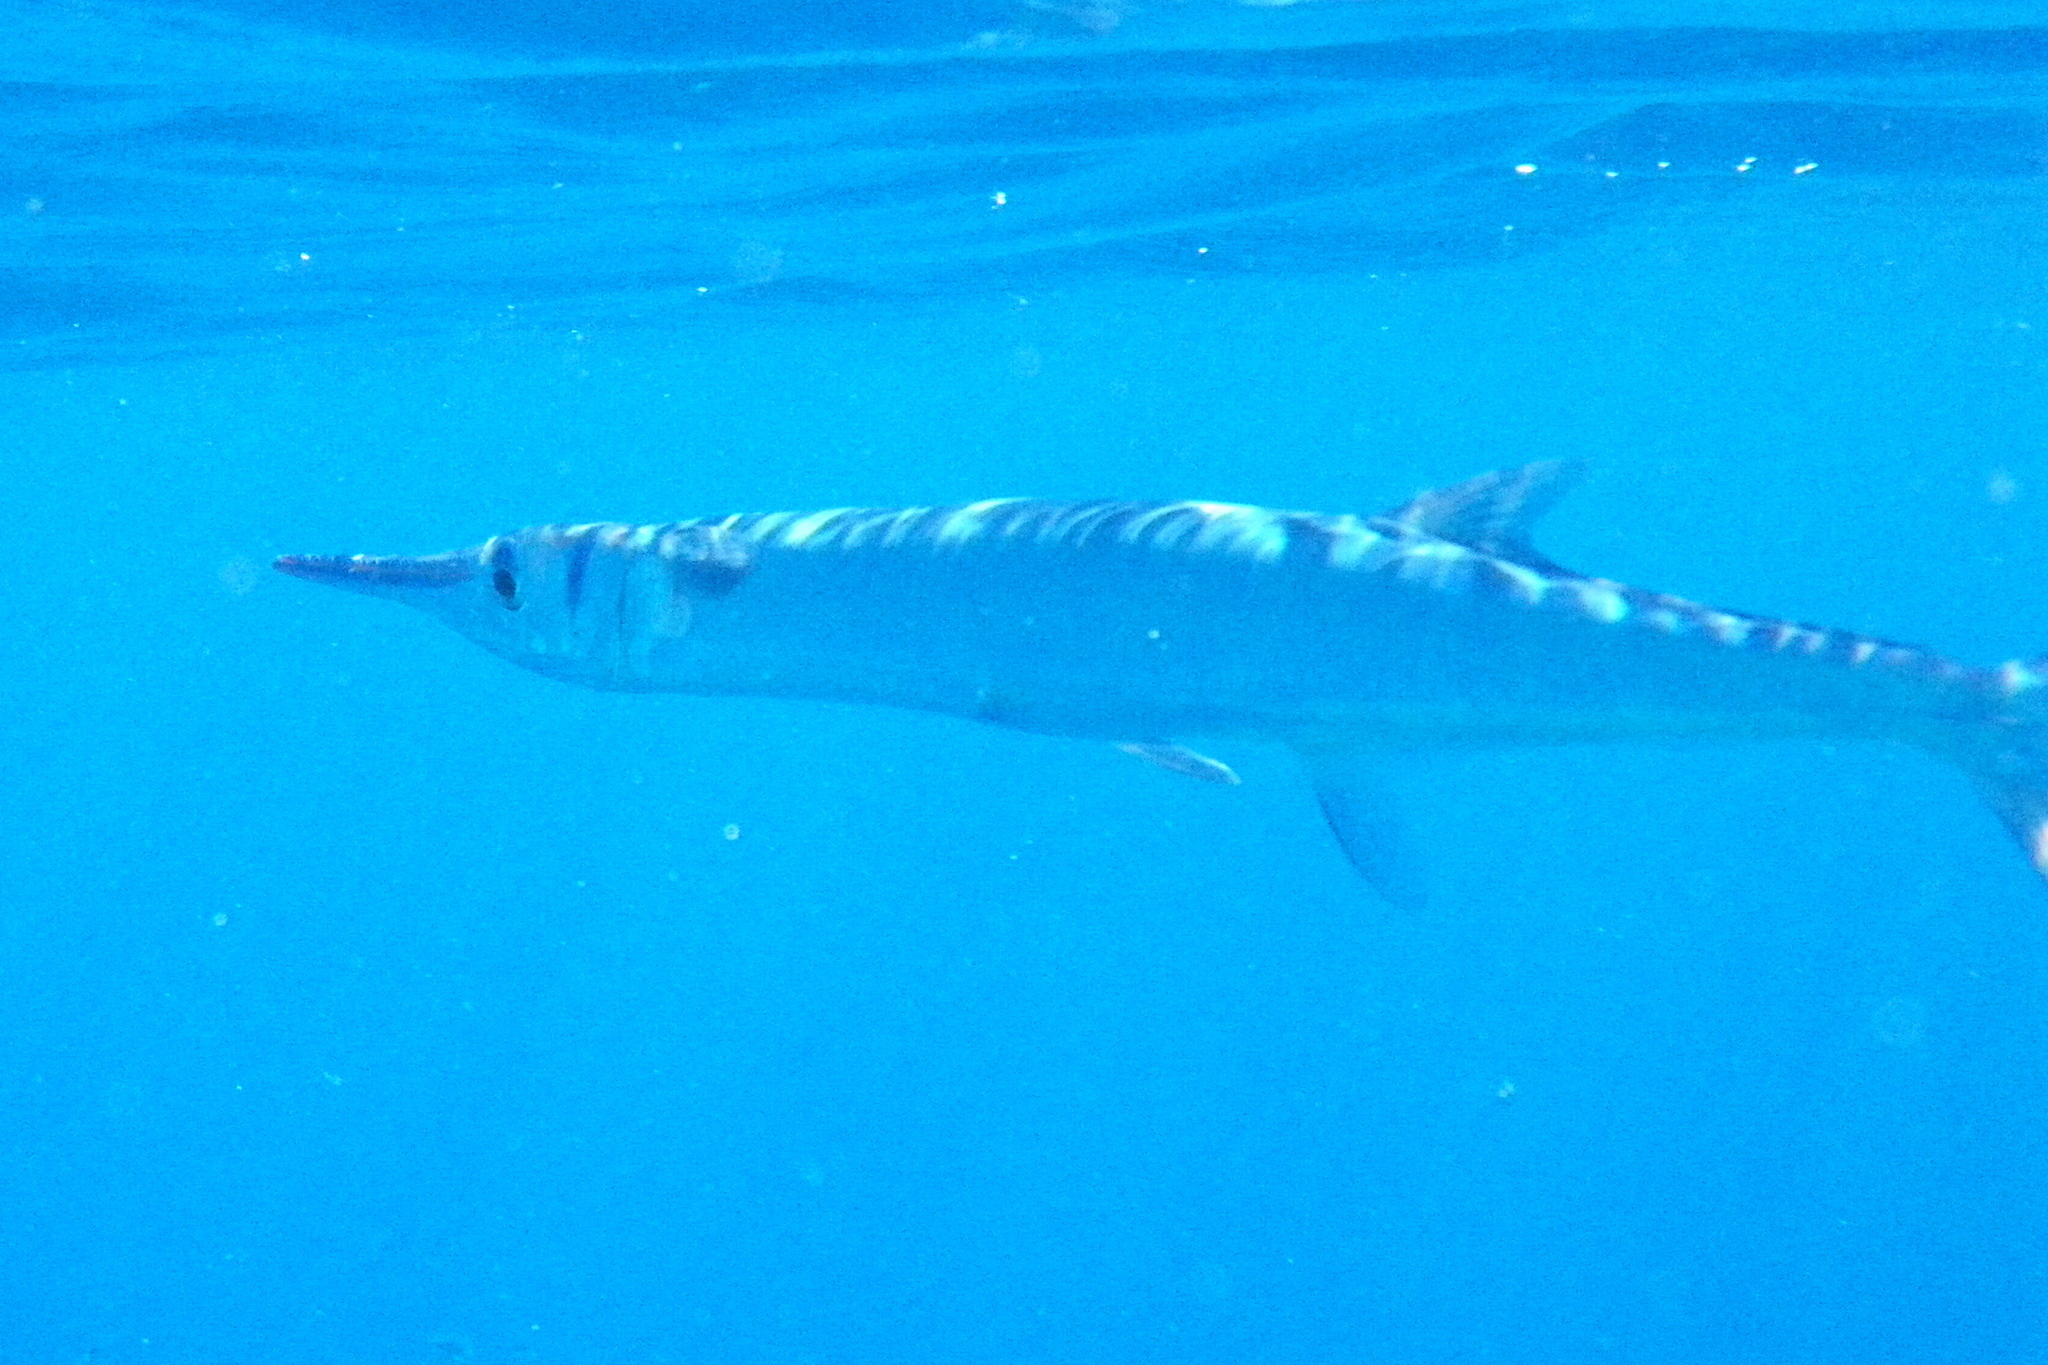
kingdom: Animalia
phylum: Chordata
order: Beloniformes
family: Belonidae
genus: Tylosurus
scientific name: Tylosurus crocodilus
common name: Houndfish
